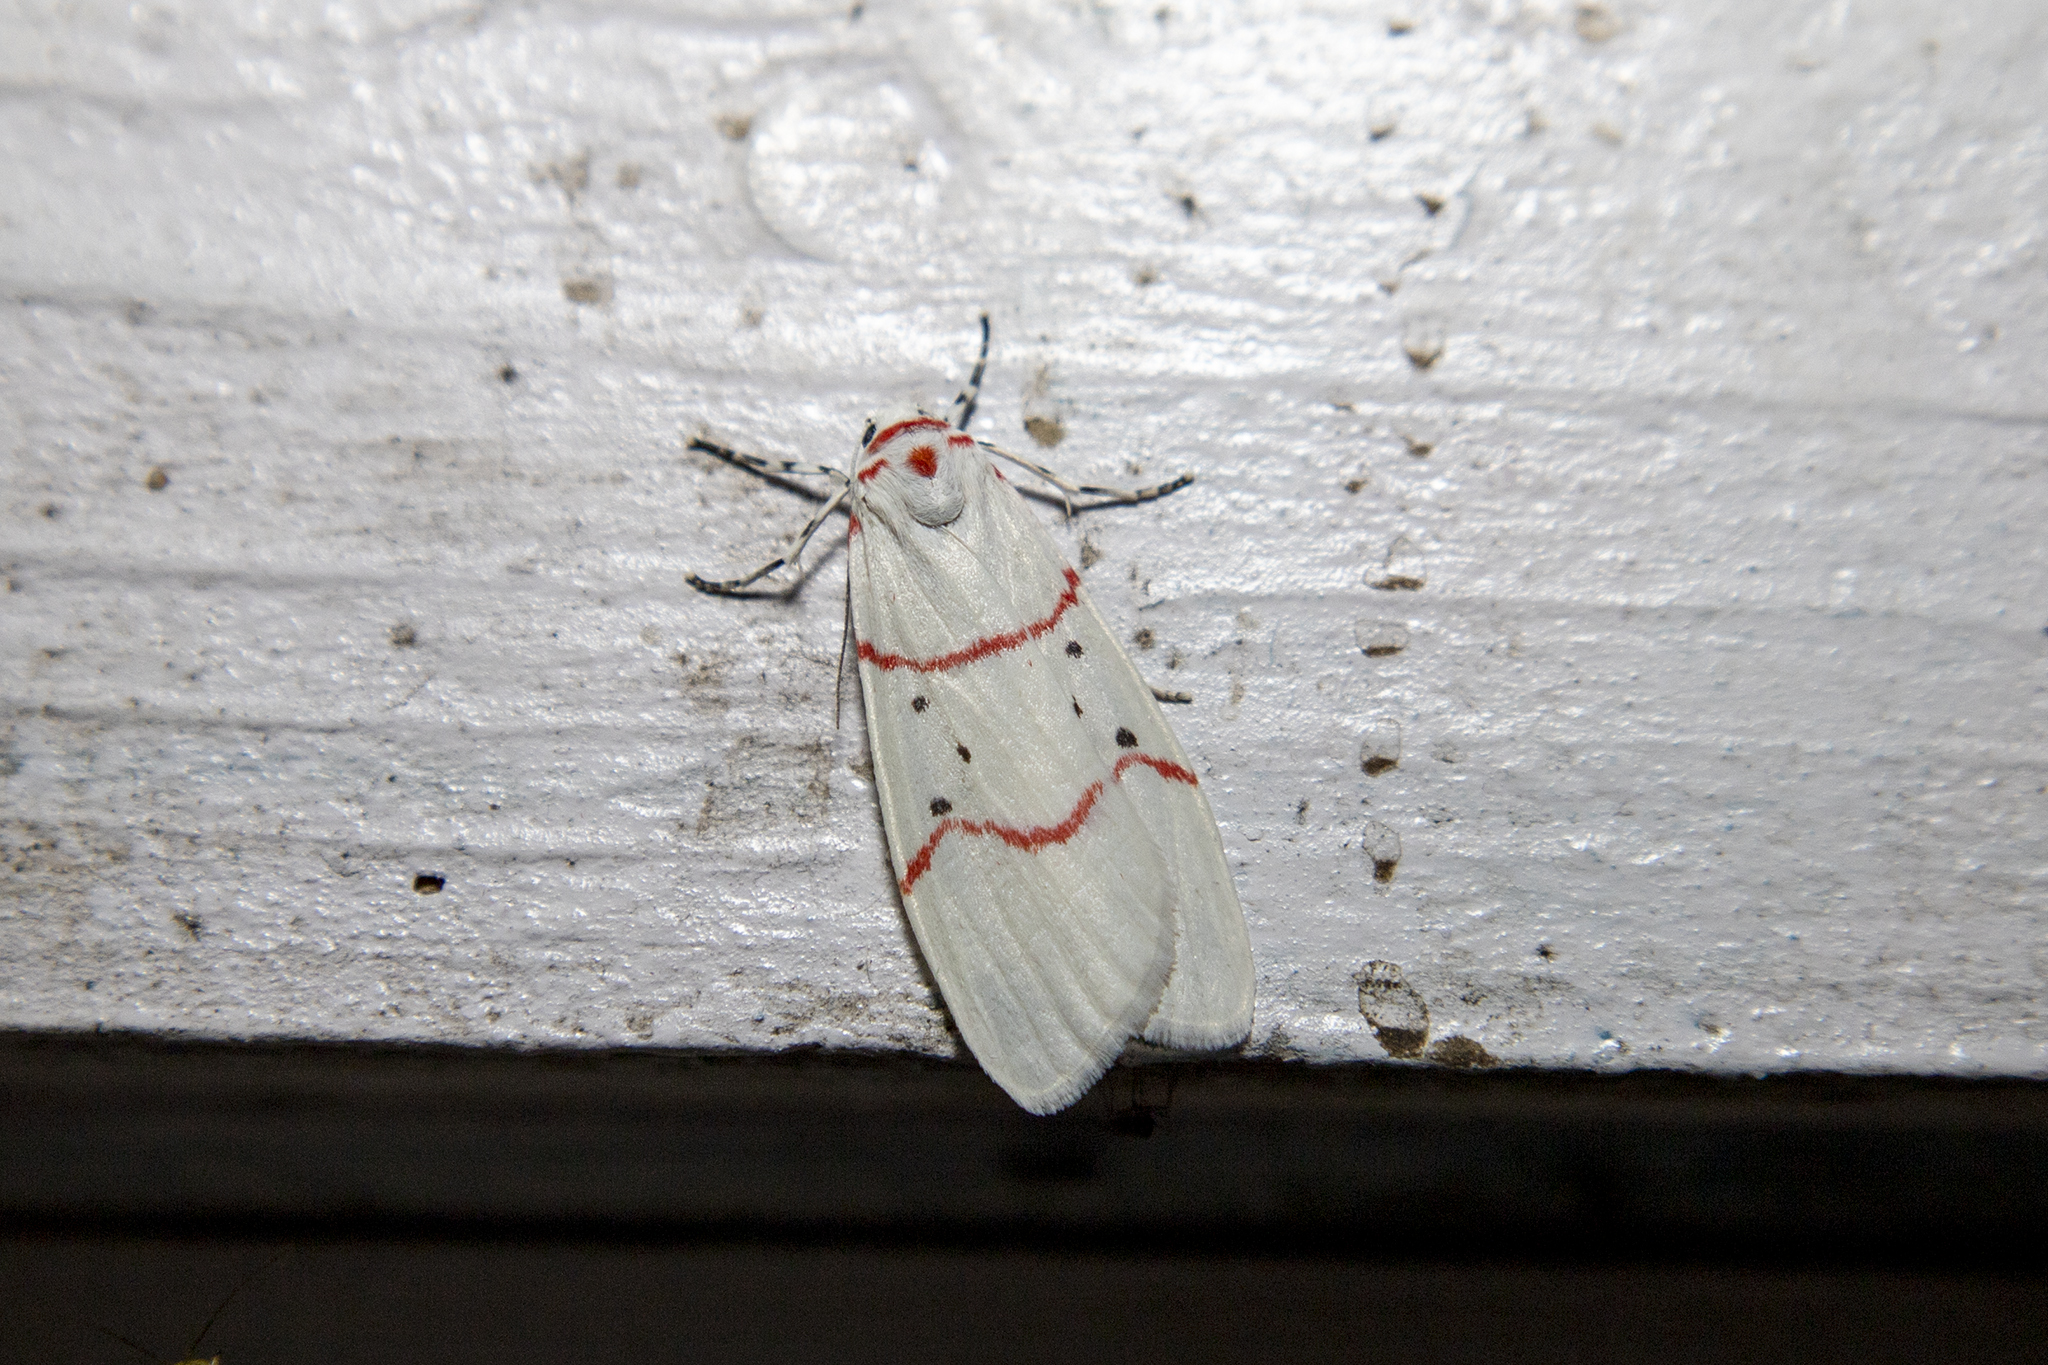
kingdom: Animalia
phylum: Arthropoda
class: Insecta
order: Lepidoptera
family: Erebidae
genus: Cyana
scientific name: Cyana adita
